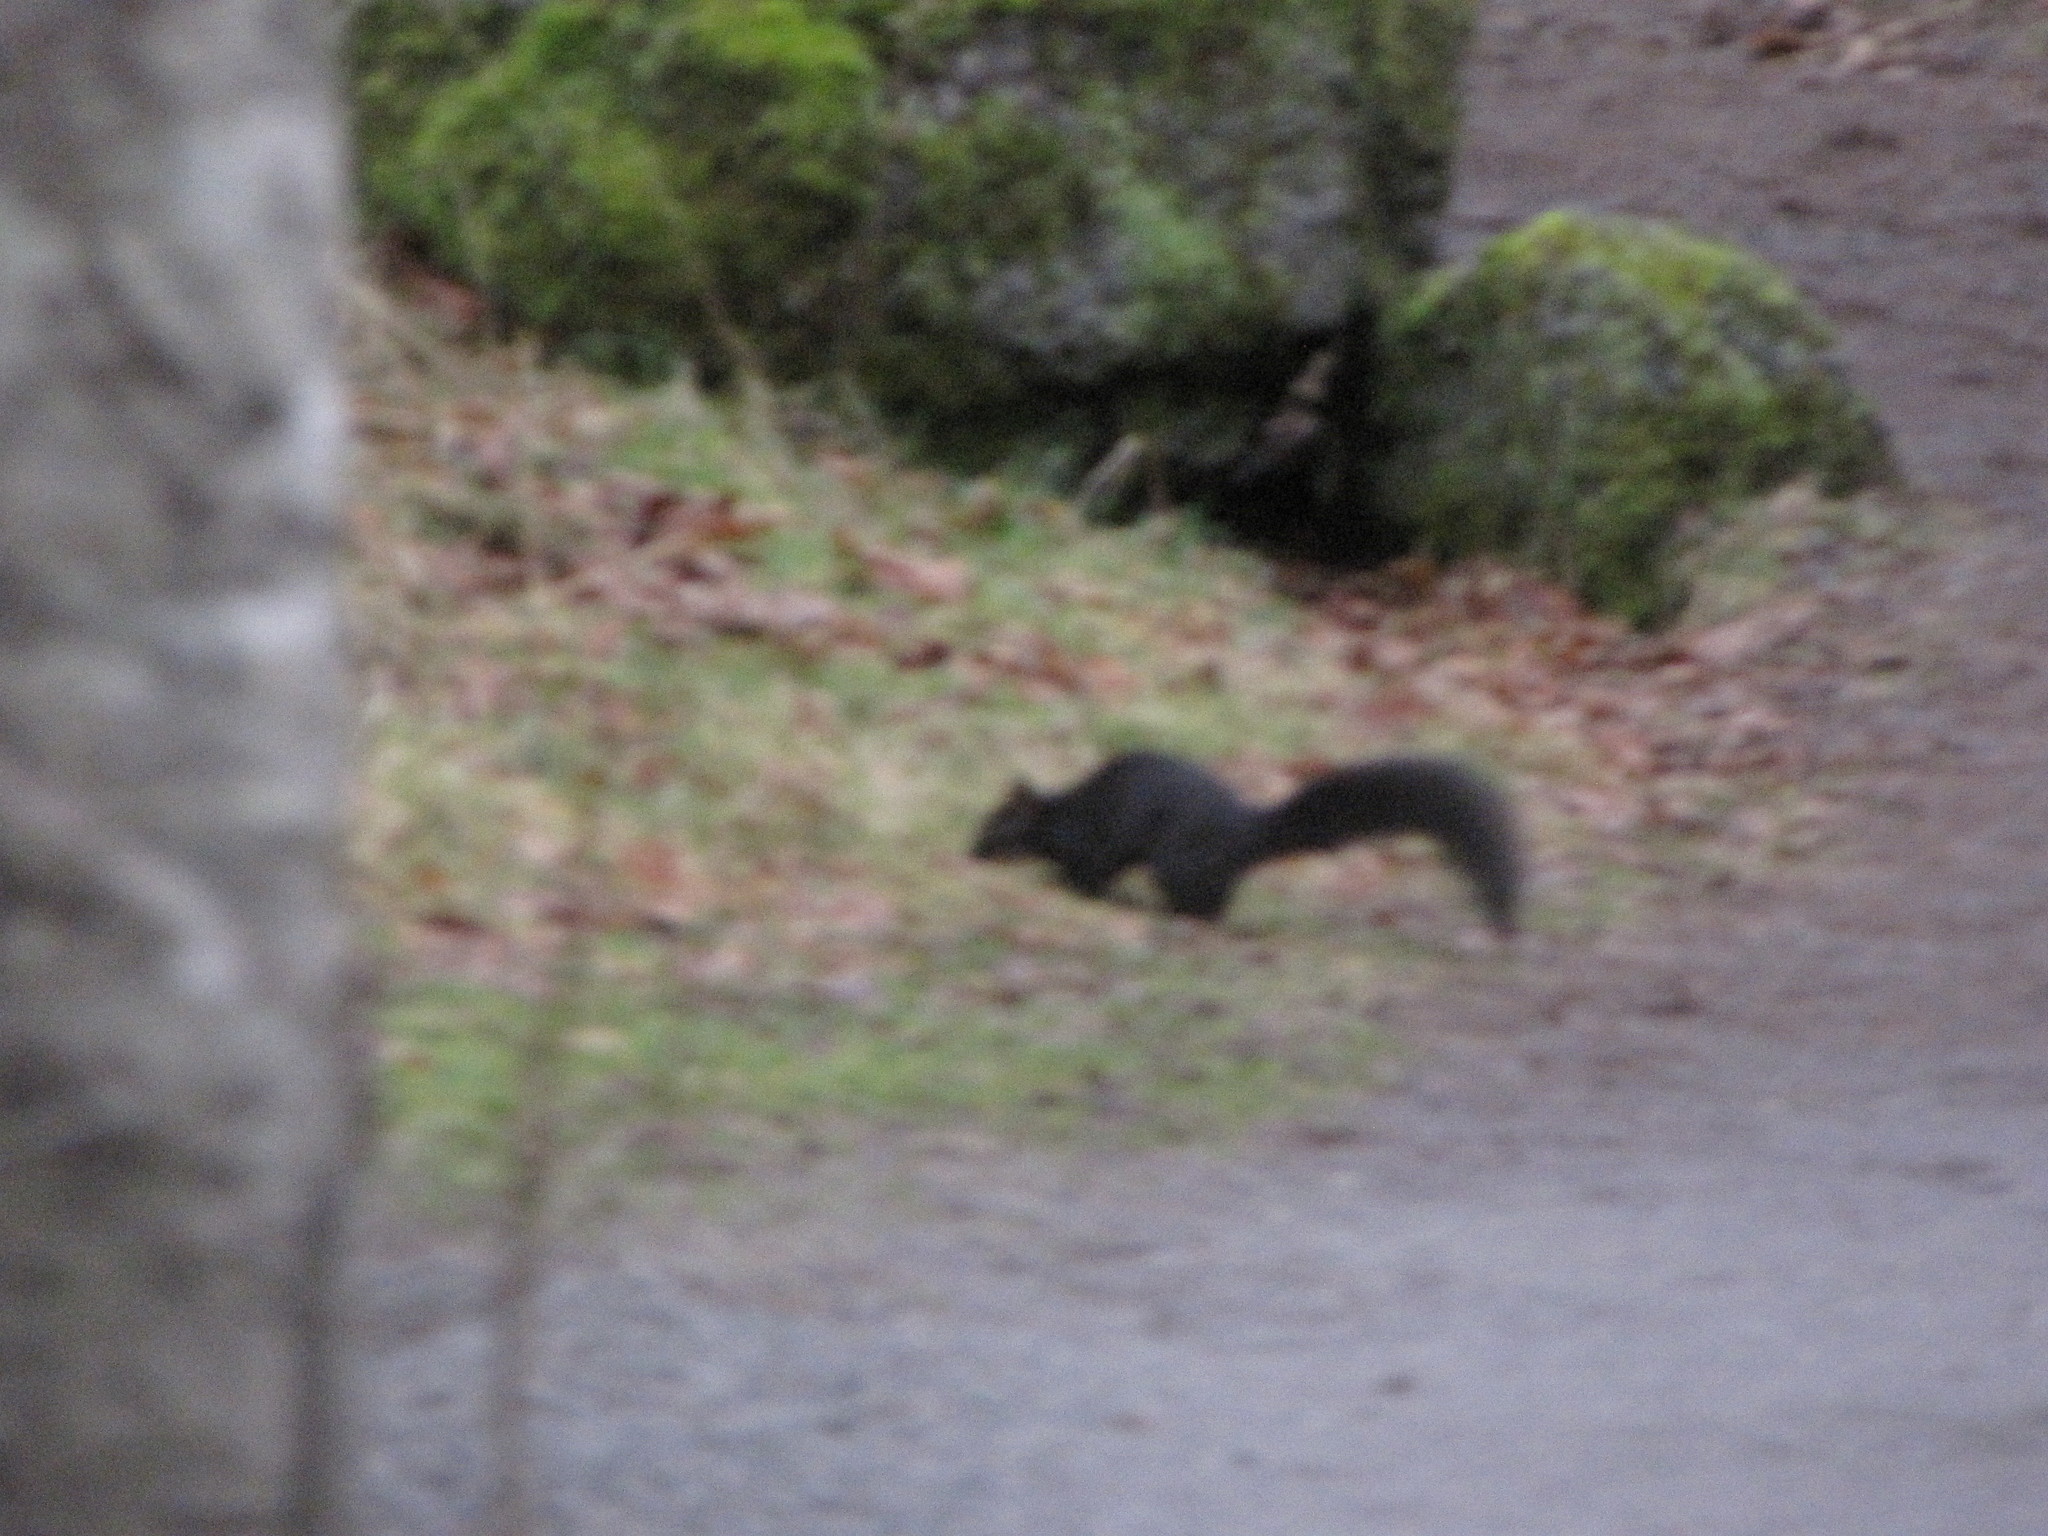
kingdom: Animalia
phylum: Chordata
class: Mammalia
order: Rodentia
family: Sciuridae
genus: Sciurus
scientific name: Sciurus carolinensis
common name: Eastern gray squirrel
